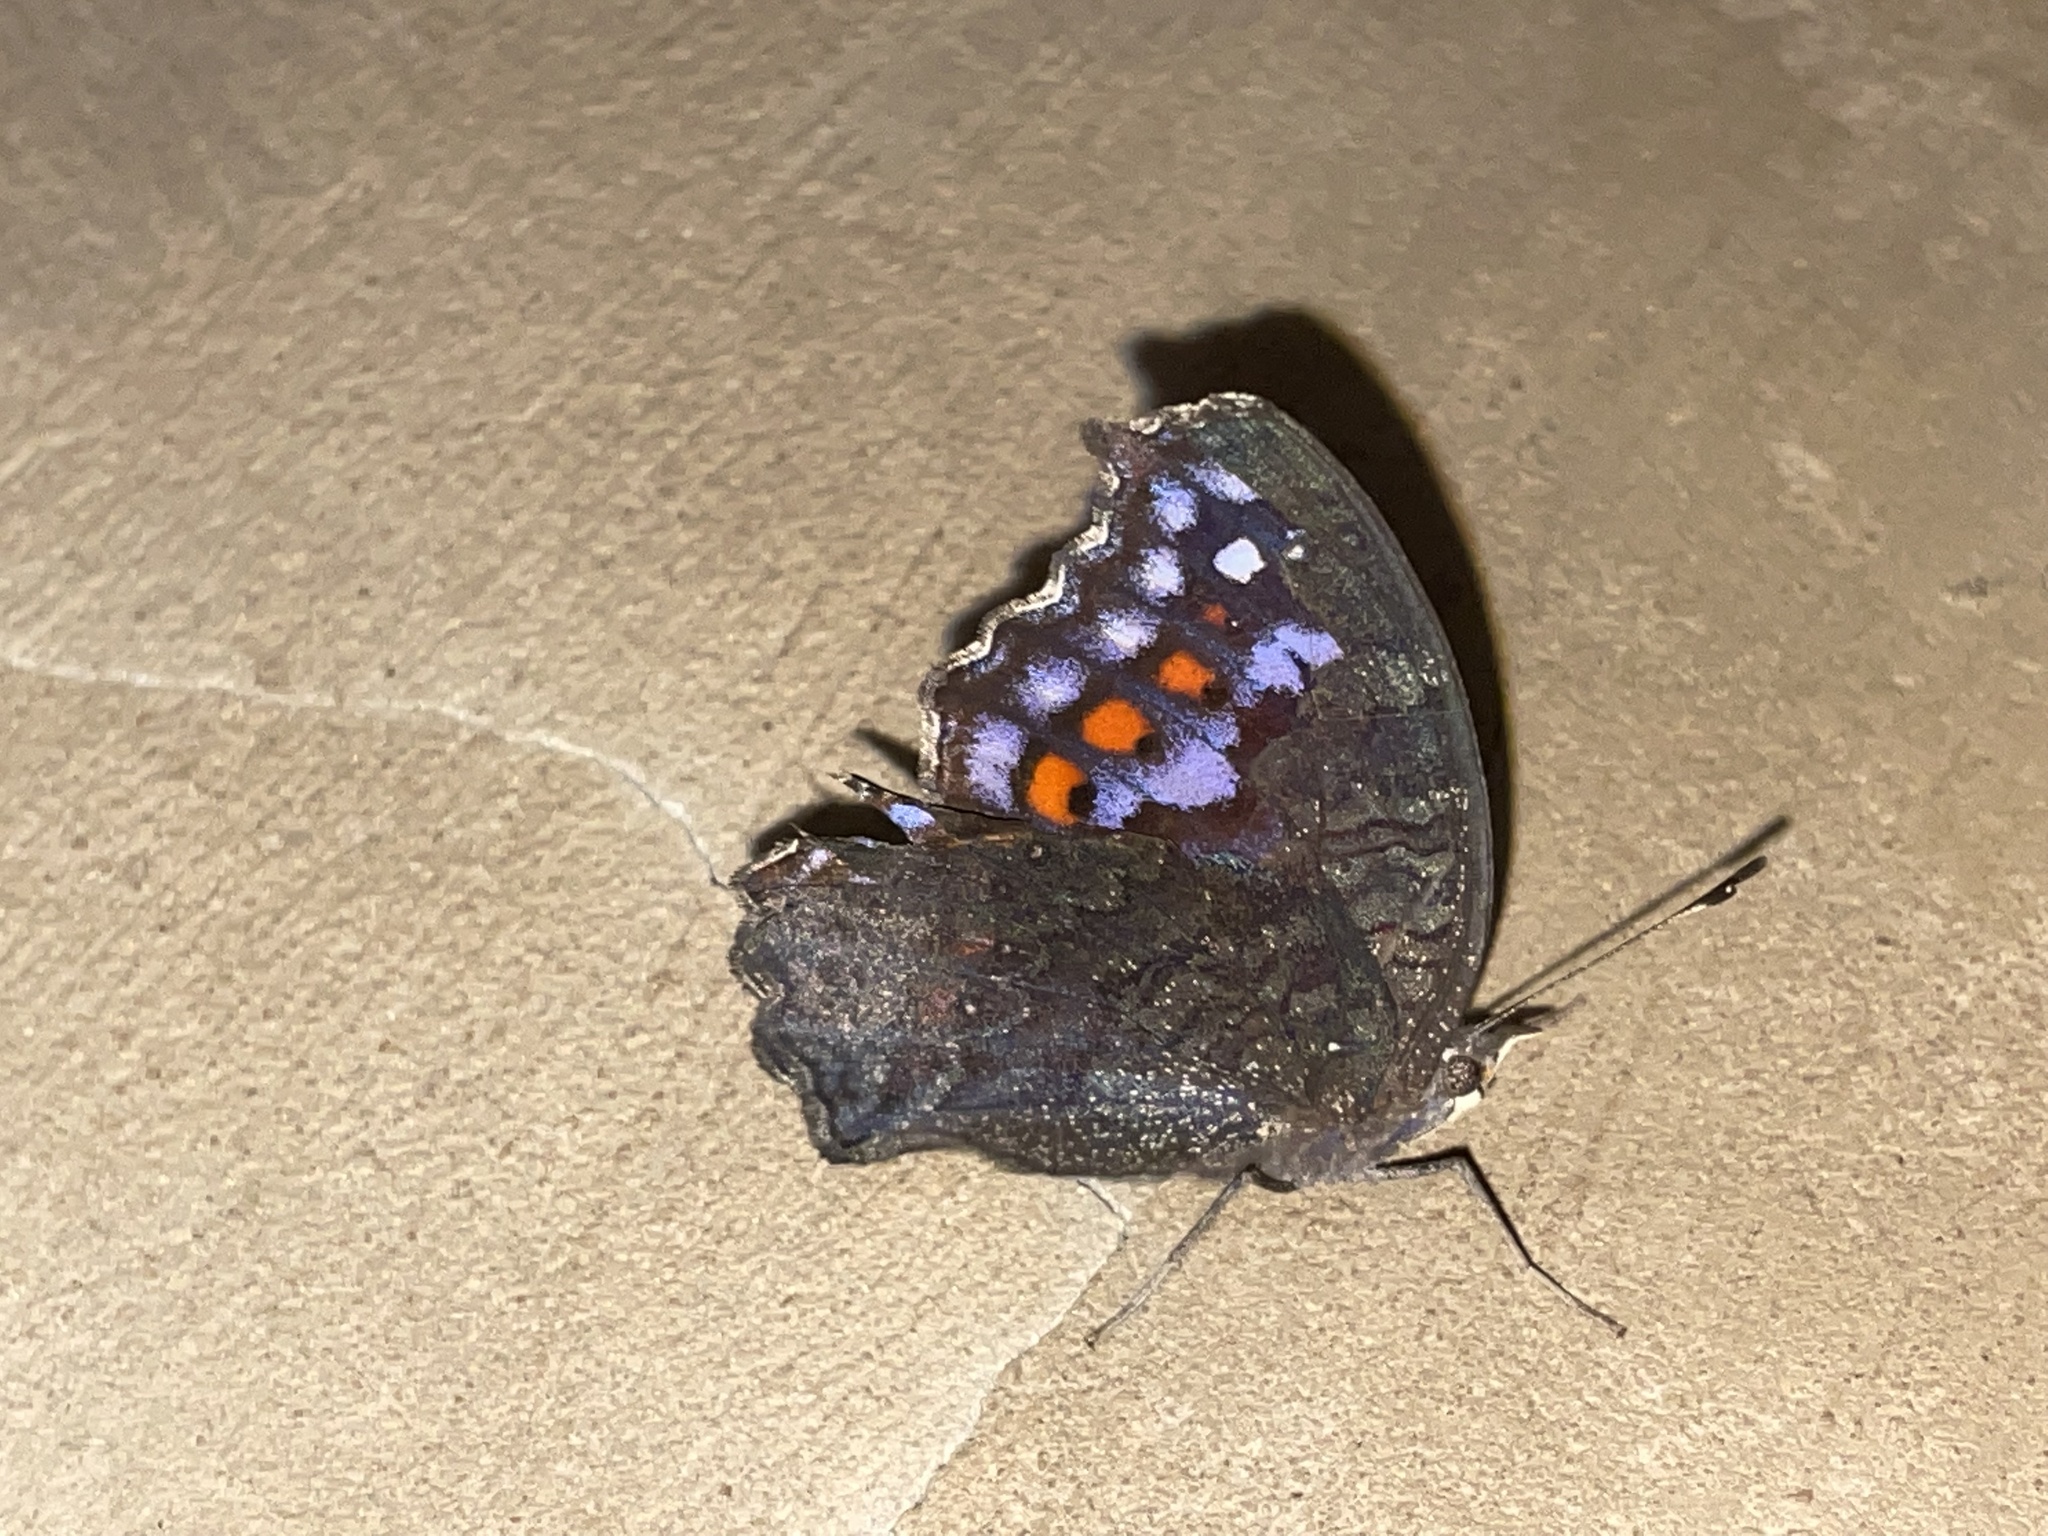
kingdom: Animalia
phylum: Arthropoda
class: Insecta
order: Lepidoptera
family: Nymphalidae
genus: Precis
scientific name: Precis octavia
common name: Gaudy commodore
